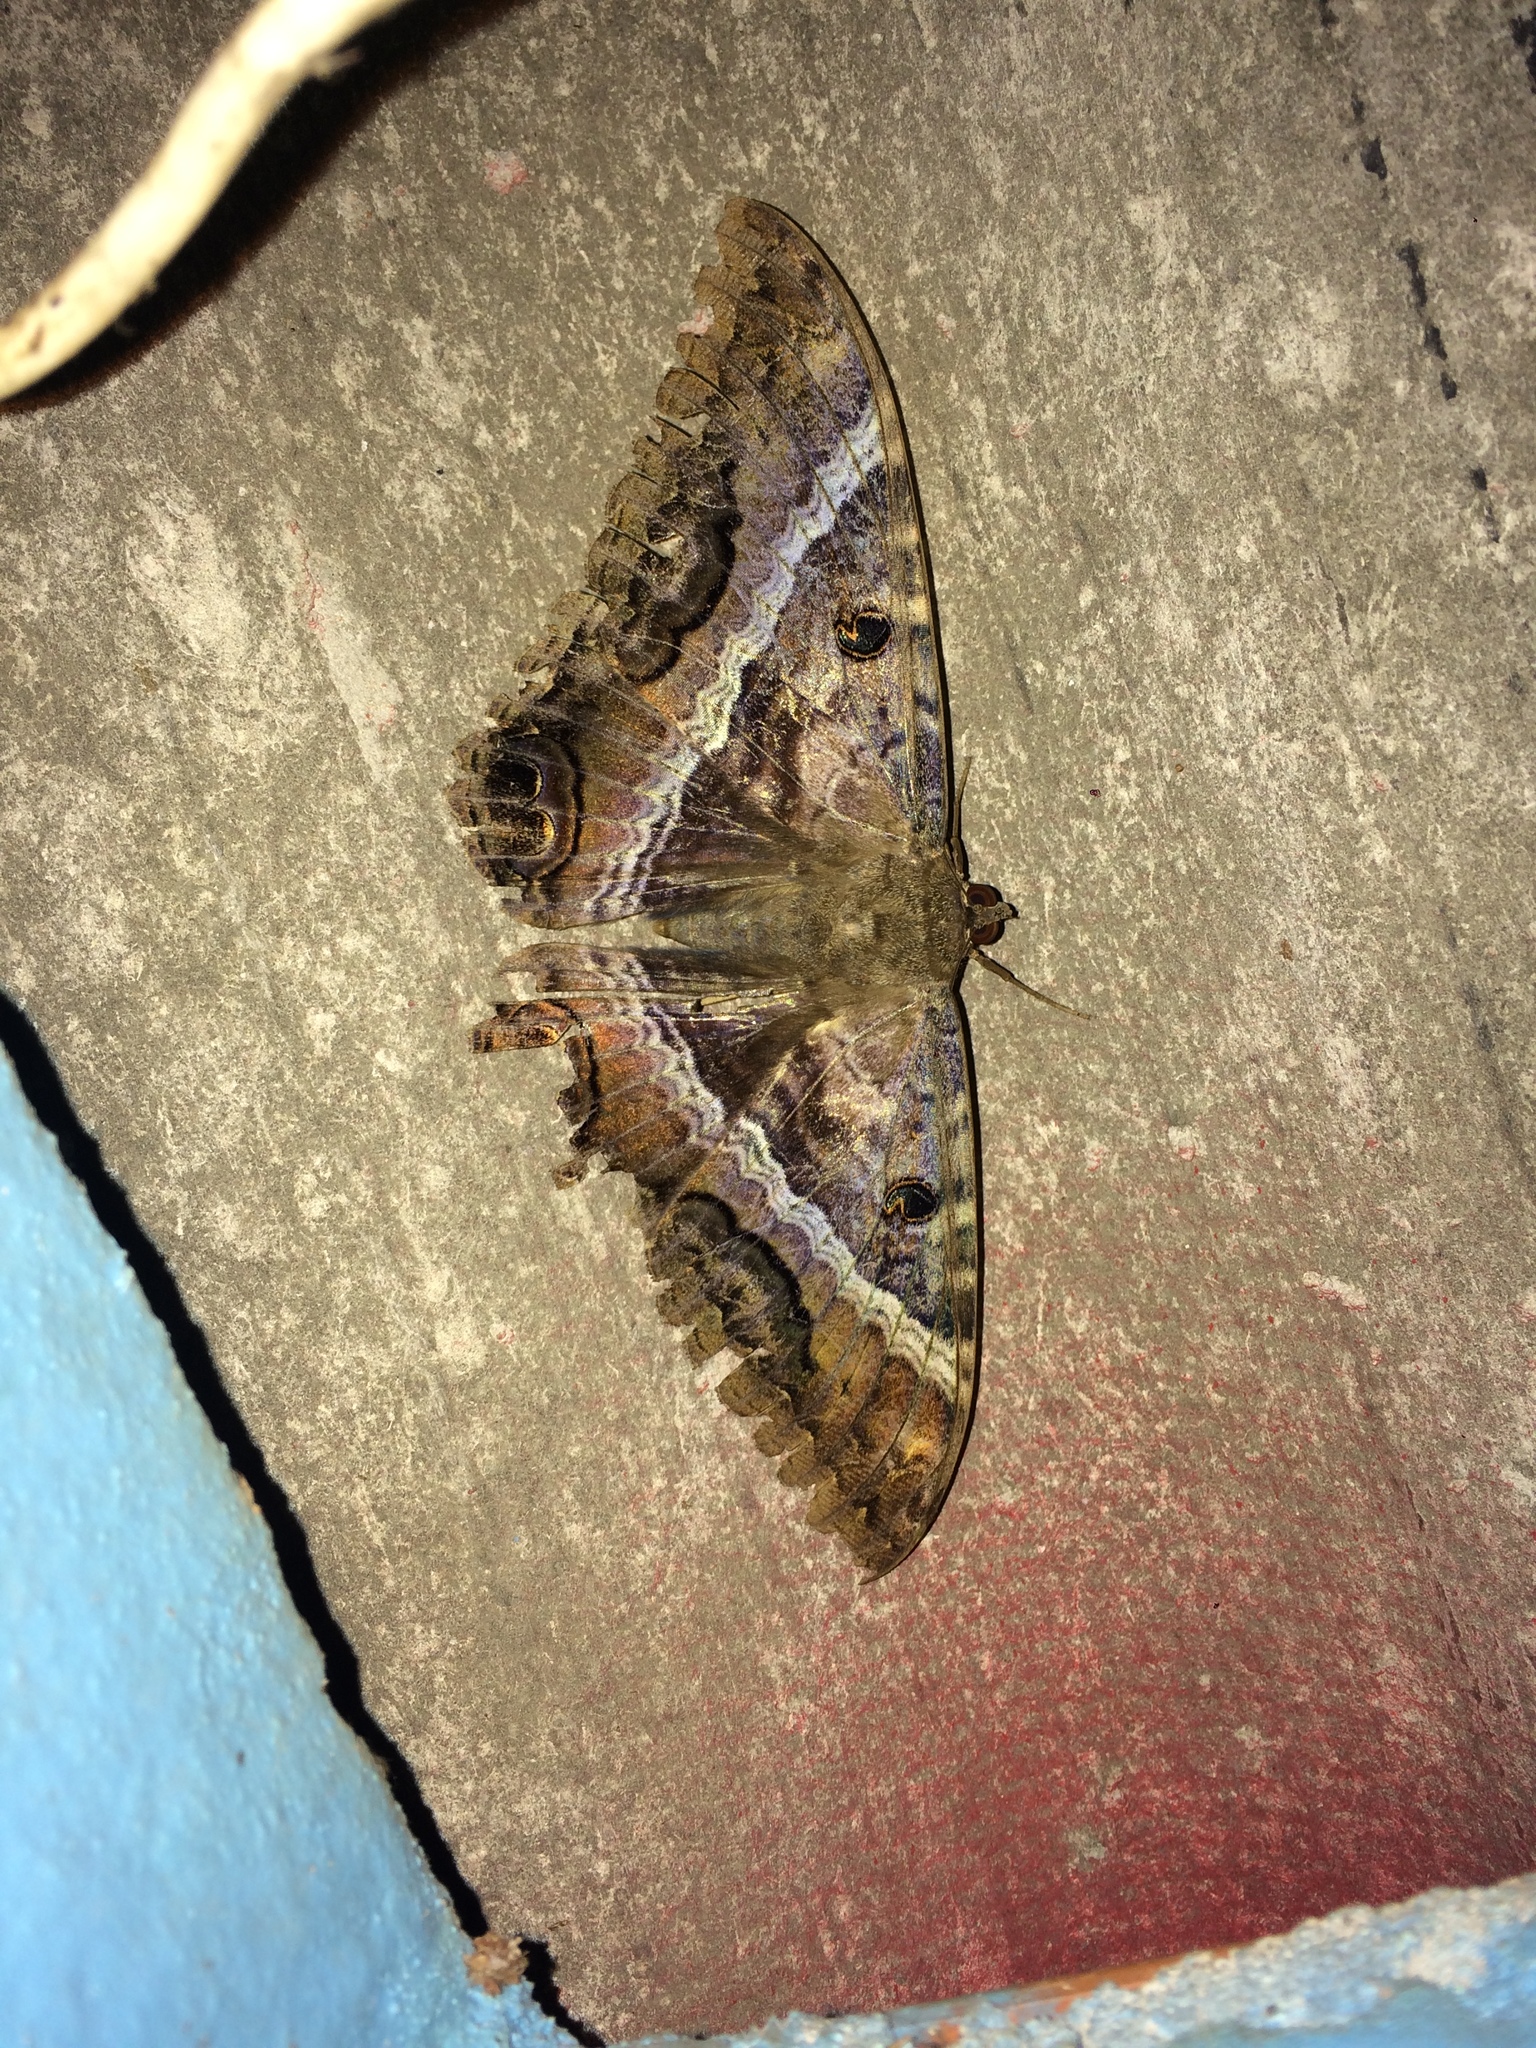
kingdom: Animalia
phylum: Arthropoda
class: Insecta
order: Lepidoptera
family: Erebidae
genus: Ascalapha
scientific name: Ascalapha odorata
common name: Black witch
